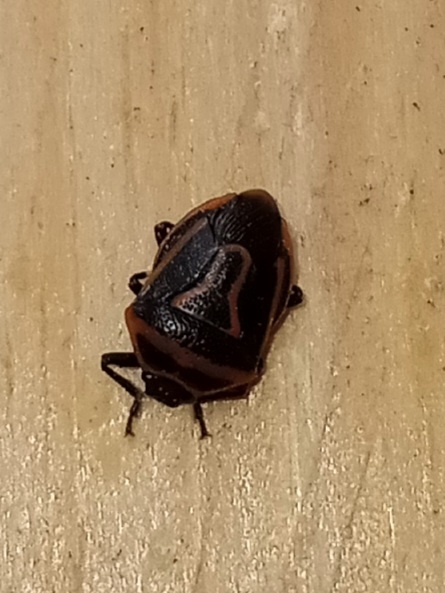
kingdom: Animalia
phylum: Arthropoda
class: Insecta
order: Hemiptera
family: Pentatomidae
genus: Perillus
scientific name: Perillus bioculatus
